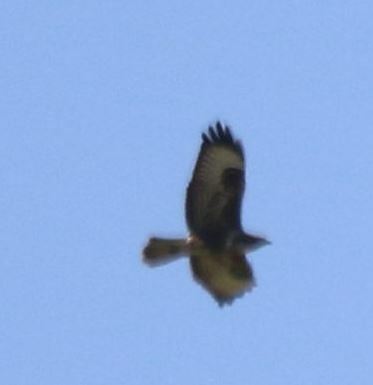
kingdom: Animalia
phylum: Chordata
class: Aves
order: Accipitriformes
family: Accipitridae
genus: Buteo
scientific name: Buteo buteo
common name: Common buzzard
